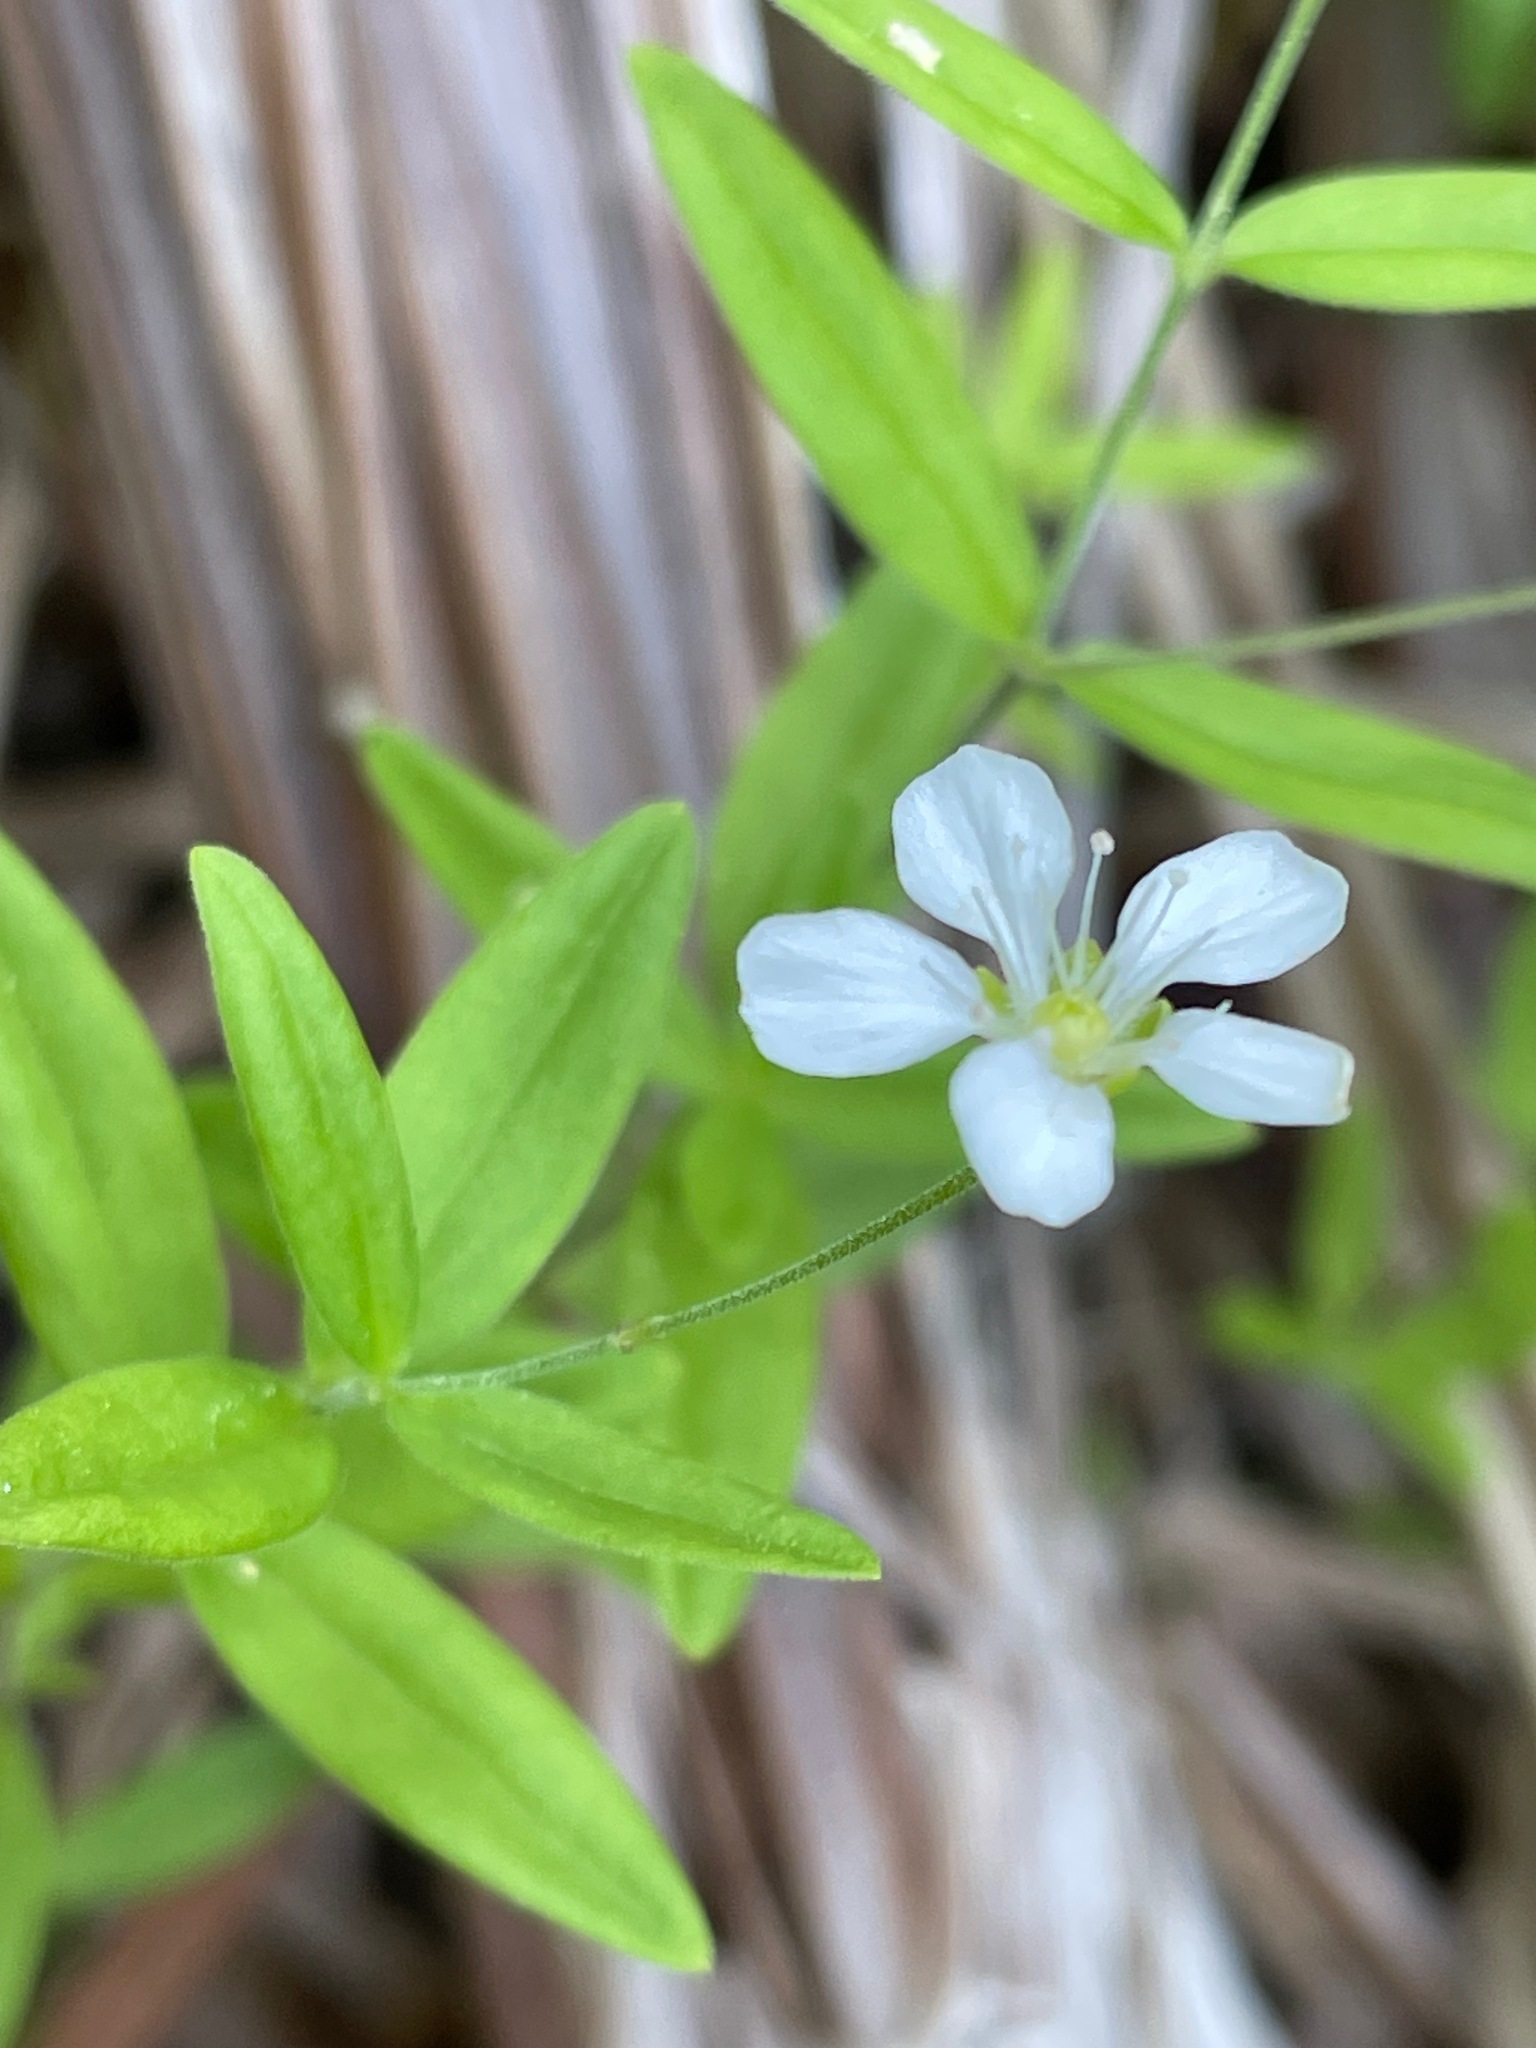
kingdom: Plantae
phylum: Tracheophyta
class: Magnoliopsida
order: Caryophyllales
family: Caryophyllaceae
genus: Moehringia
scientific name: Moehringia lateriflora
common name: Blunt-leaved sandwort
